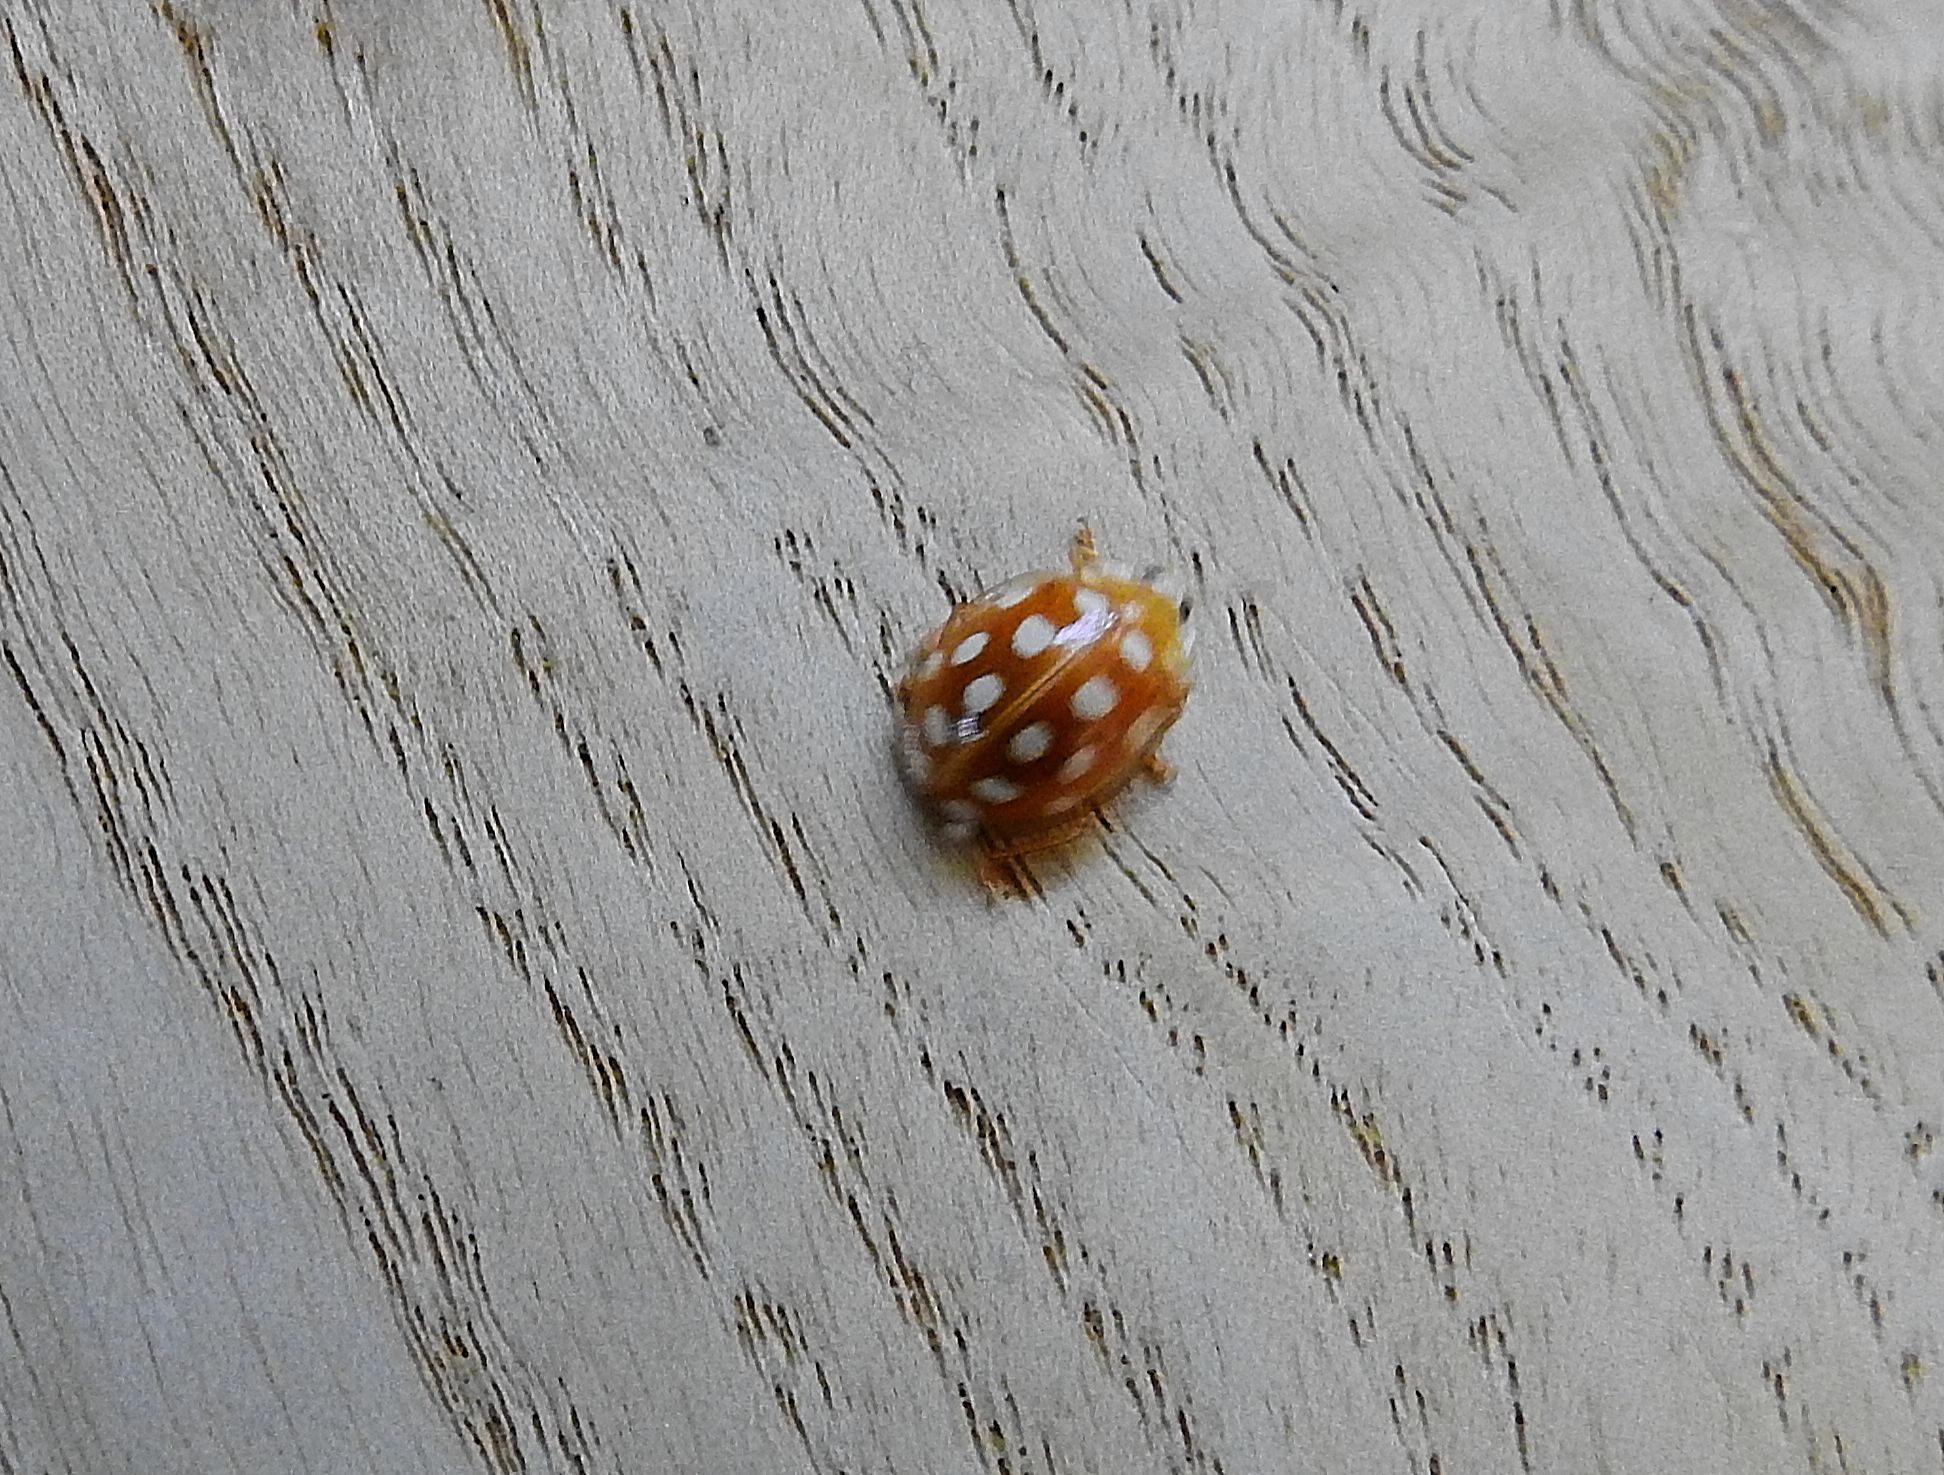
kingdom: Animalia
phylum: Arthropoda
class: Insecta
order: Coleoptera
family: Coccinellidae
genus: Halyzia
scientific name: Halyzia sedecimguttata
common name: Orange ladybird
